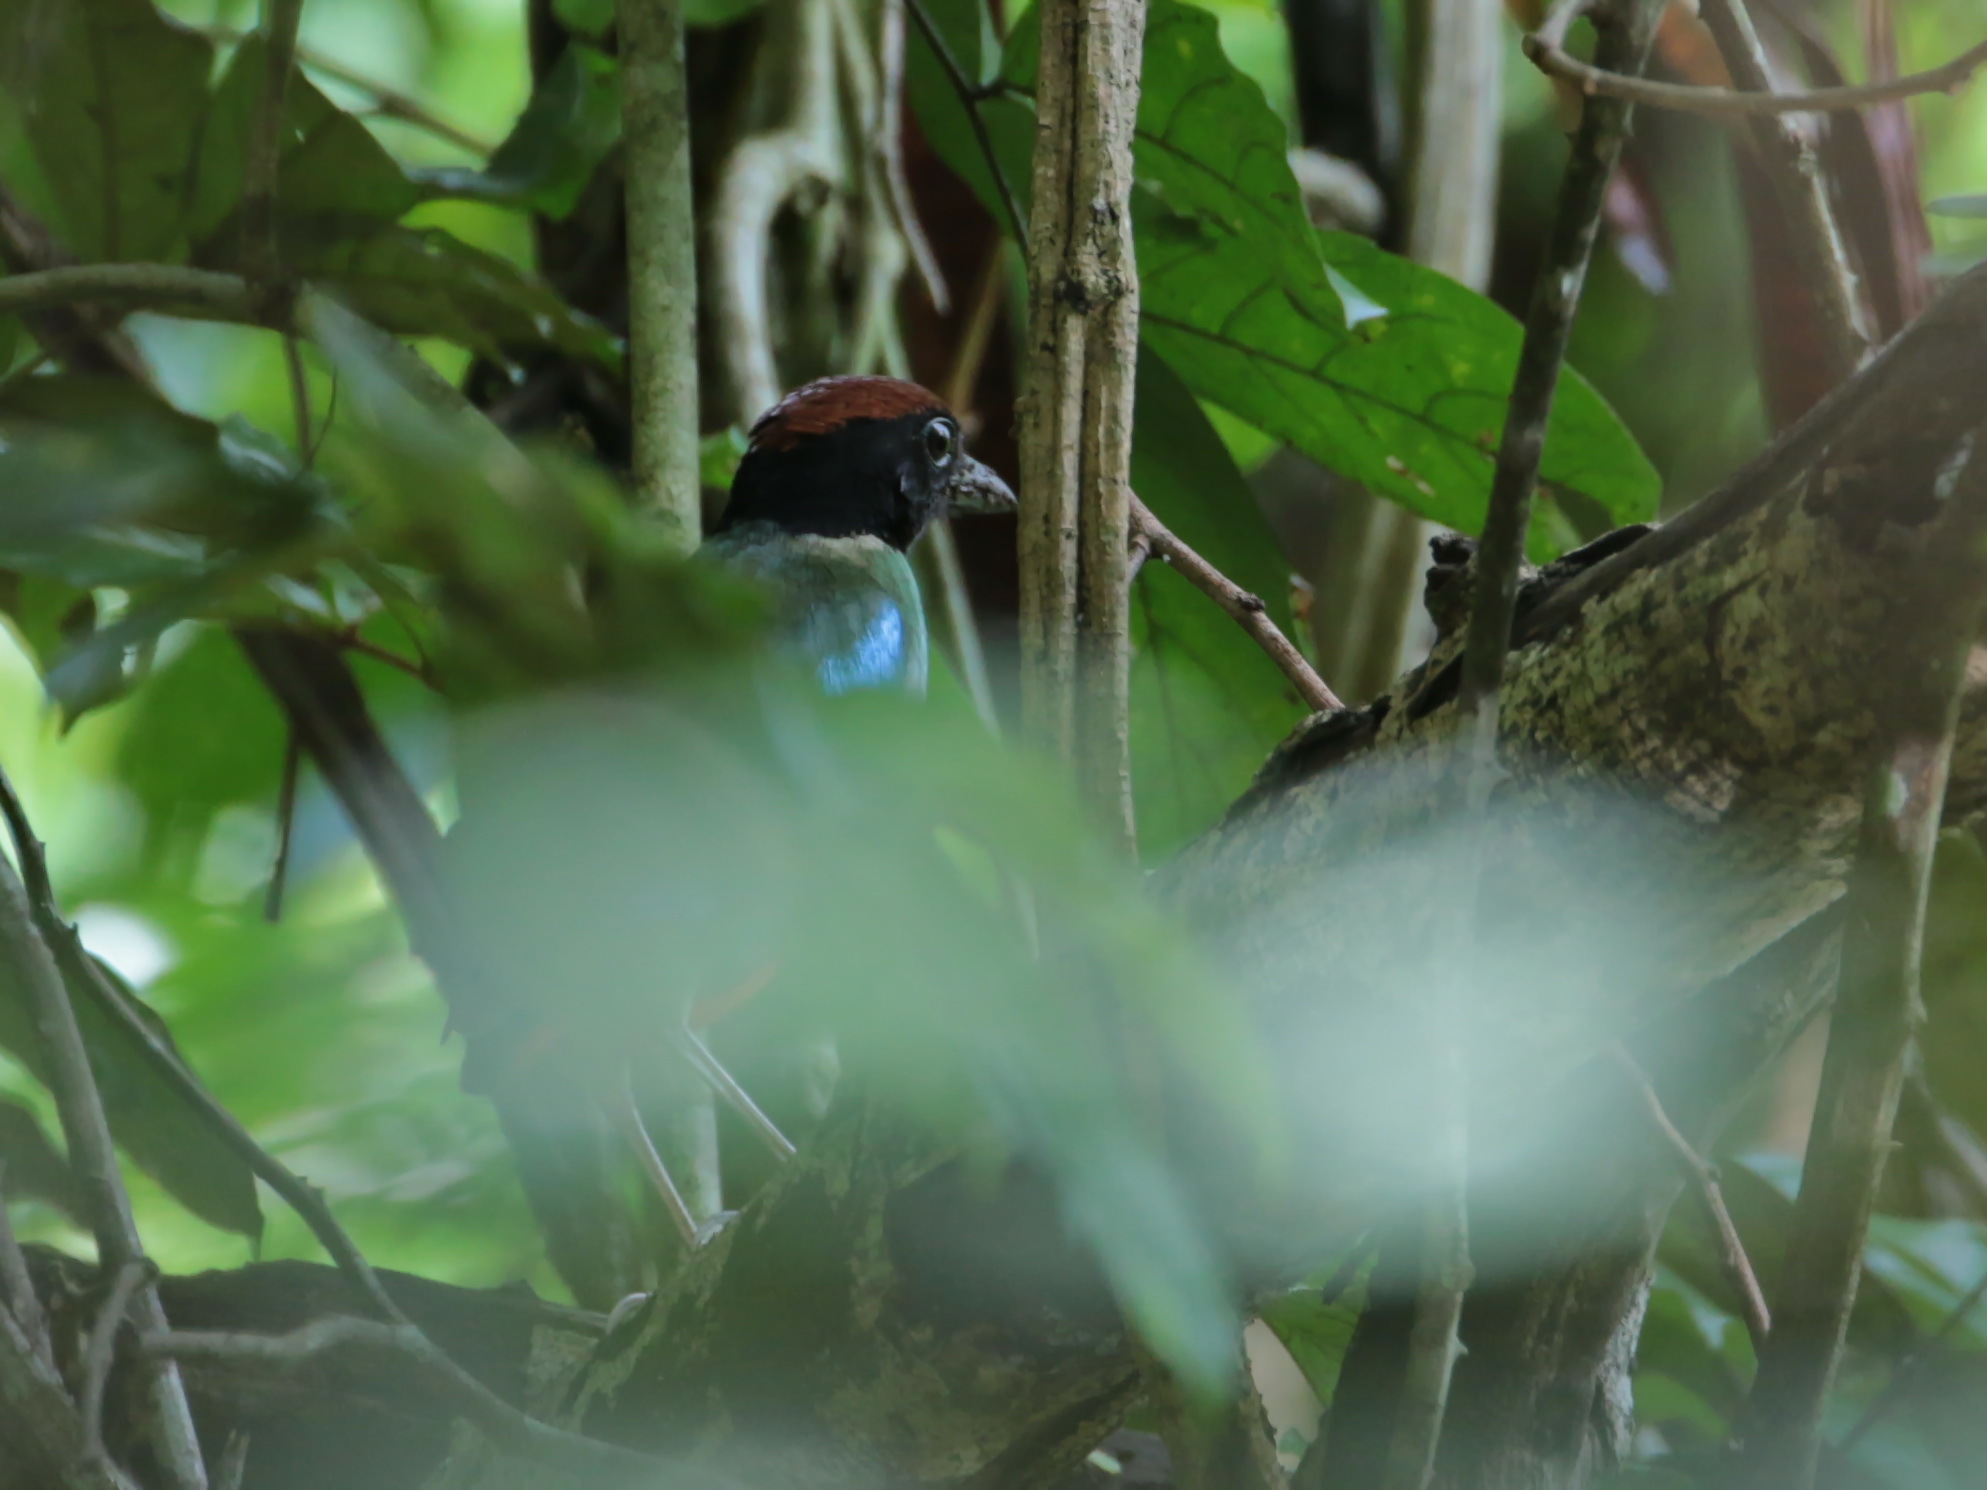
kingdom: Animalia
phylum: Chordata
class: Aves
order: Passeriformes
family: Pittidae
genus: Pitta
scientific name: Pitta sordida
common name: Hooded pitta
